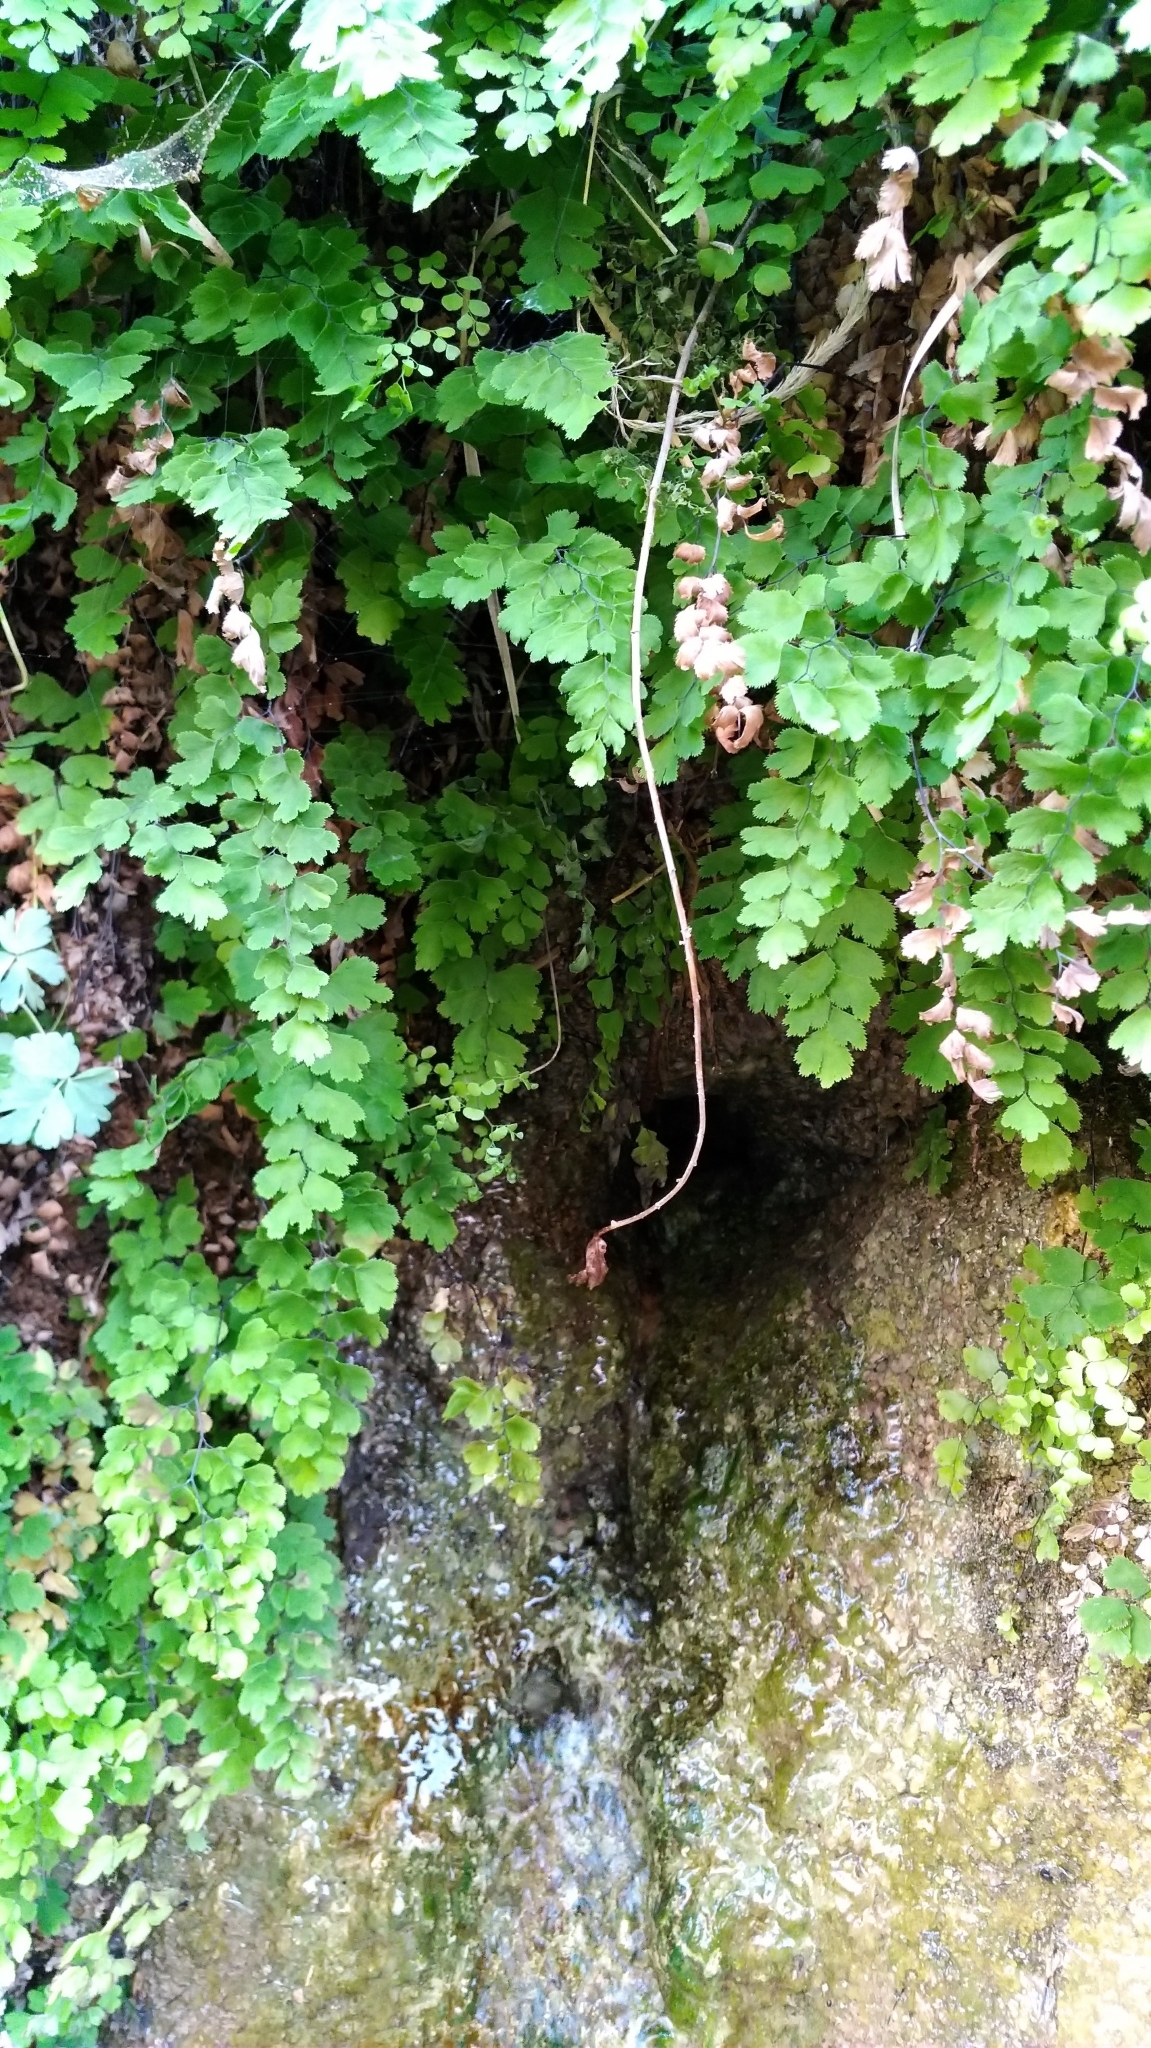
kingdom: Plantae
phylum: Tracheophyta
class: Polypodiopsida
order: Polypodiales
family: Pteridaceae
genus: Adiantum
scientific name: Adiantum capillus-veneris
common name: Maidenhair fern
